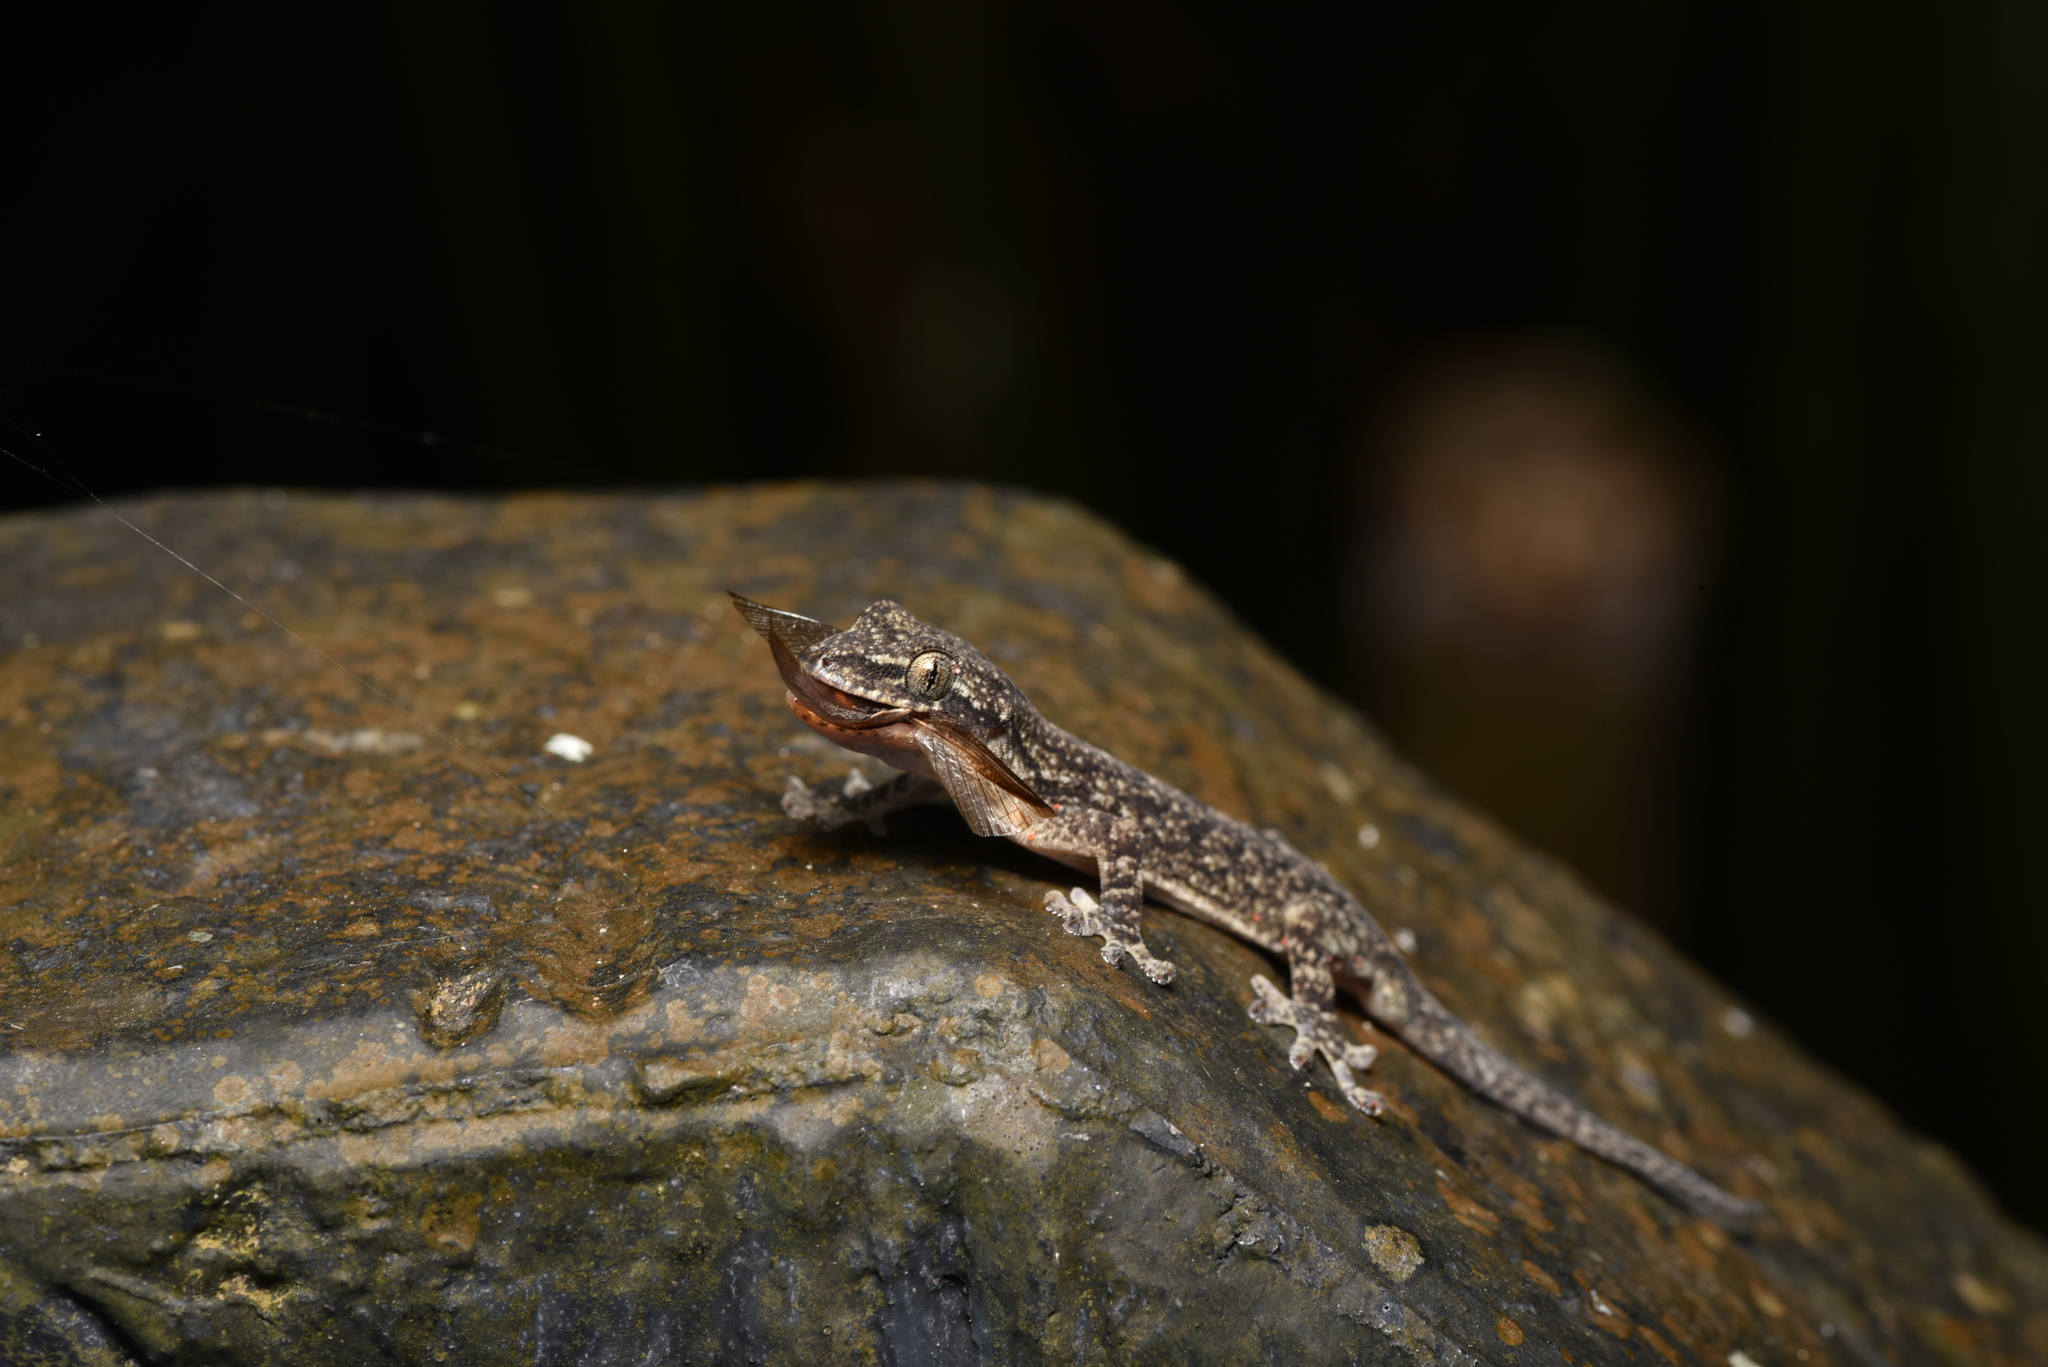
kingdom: Animalia
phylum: Chordata
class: Squamata
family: Gekkonidae
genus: Gekko
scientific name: Gekko hokouensis
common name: Kwangsi gecko
